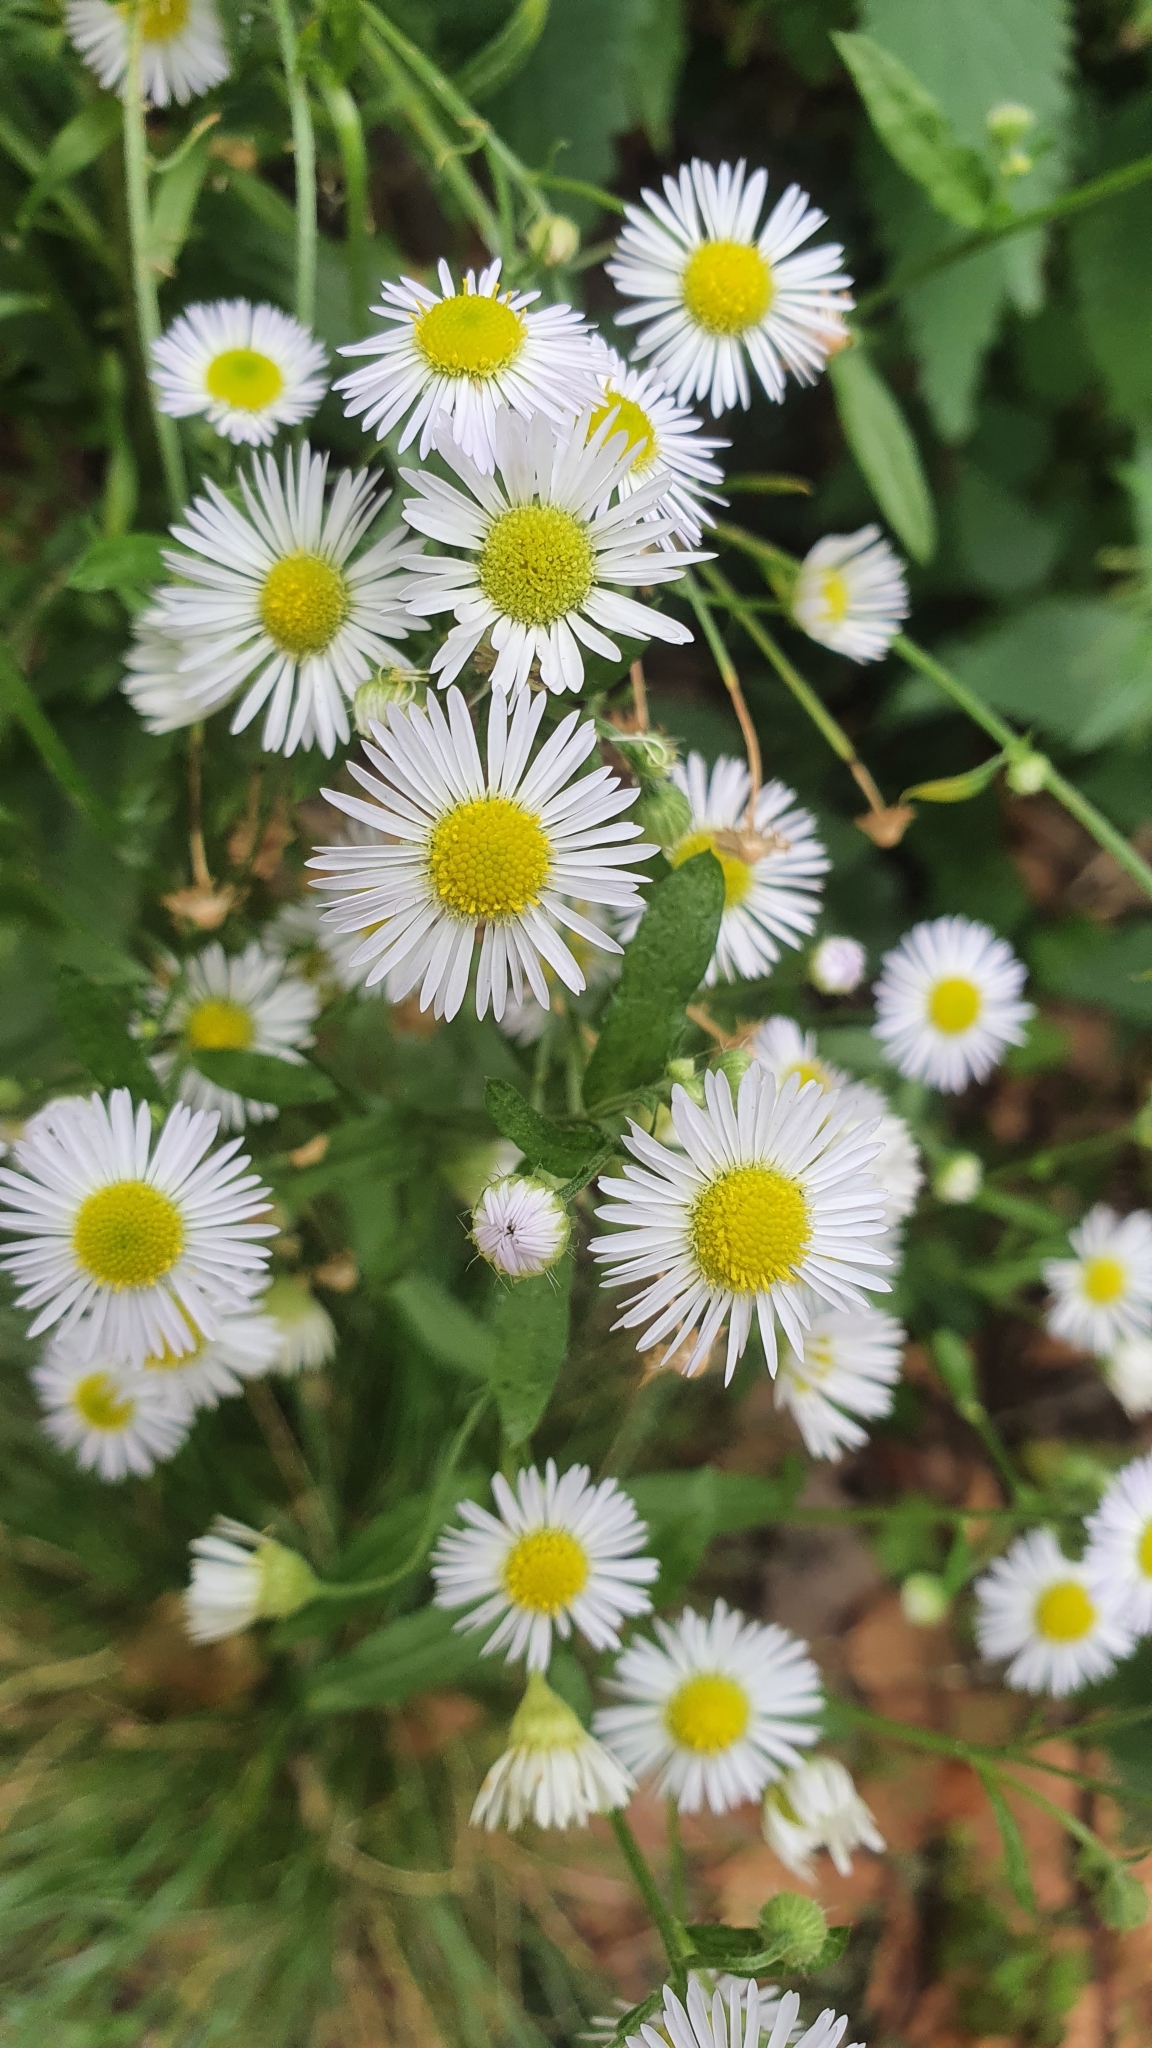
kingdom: Plantae
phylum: Tracheophyta
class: Magnoliopsida
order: Asterales
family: Asteraceae
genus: Erigeron
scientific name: Erigeron annuus
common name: Tall fleabane
